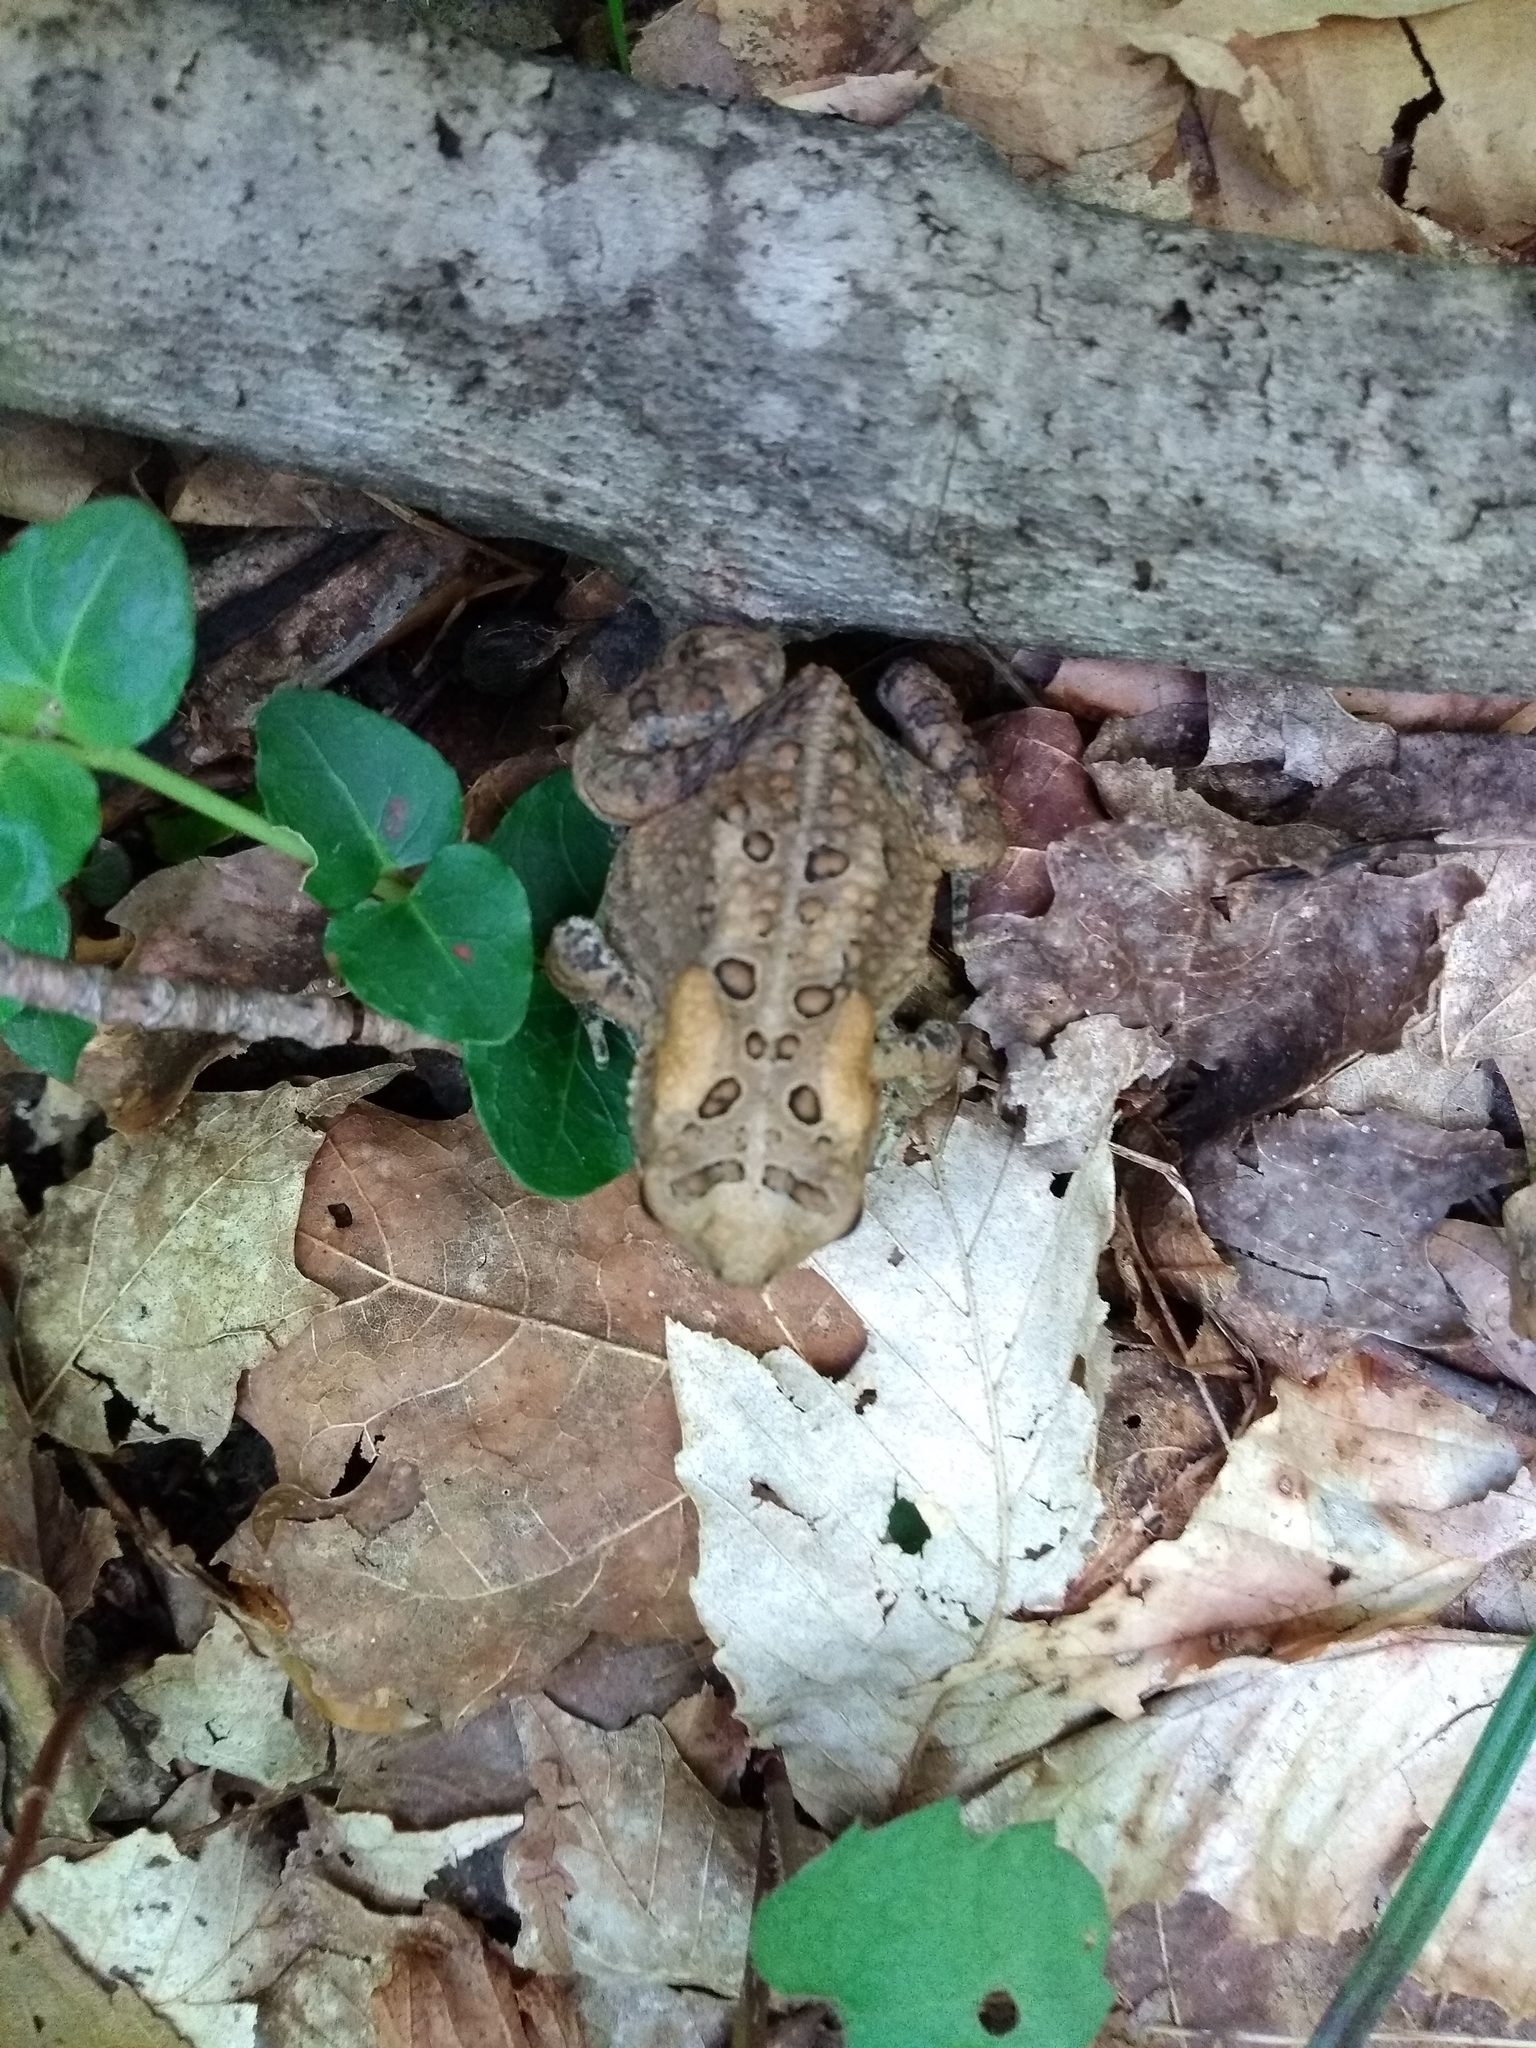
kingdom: Animalia
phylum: Chordata
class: Amphibia
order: Anura
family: Bufonidae
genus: Anaxyrus
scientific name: Anaxyrus americanus
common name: American toad
